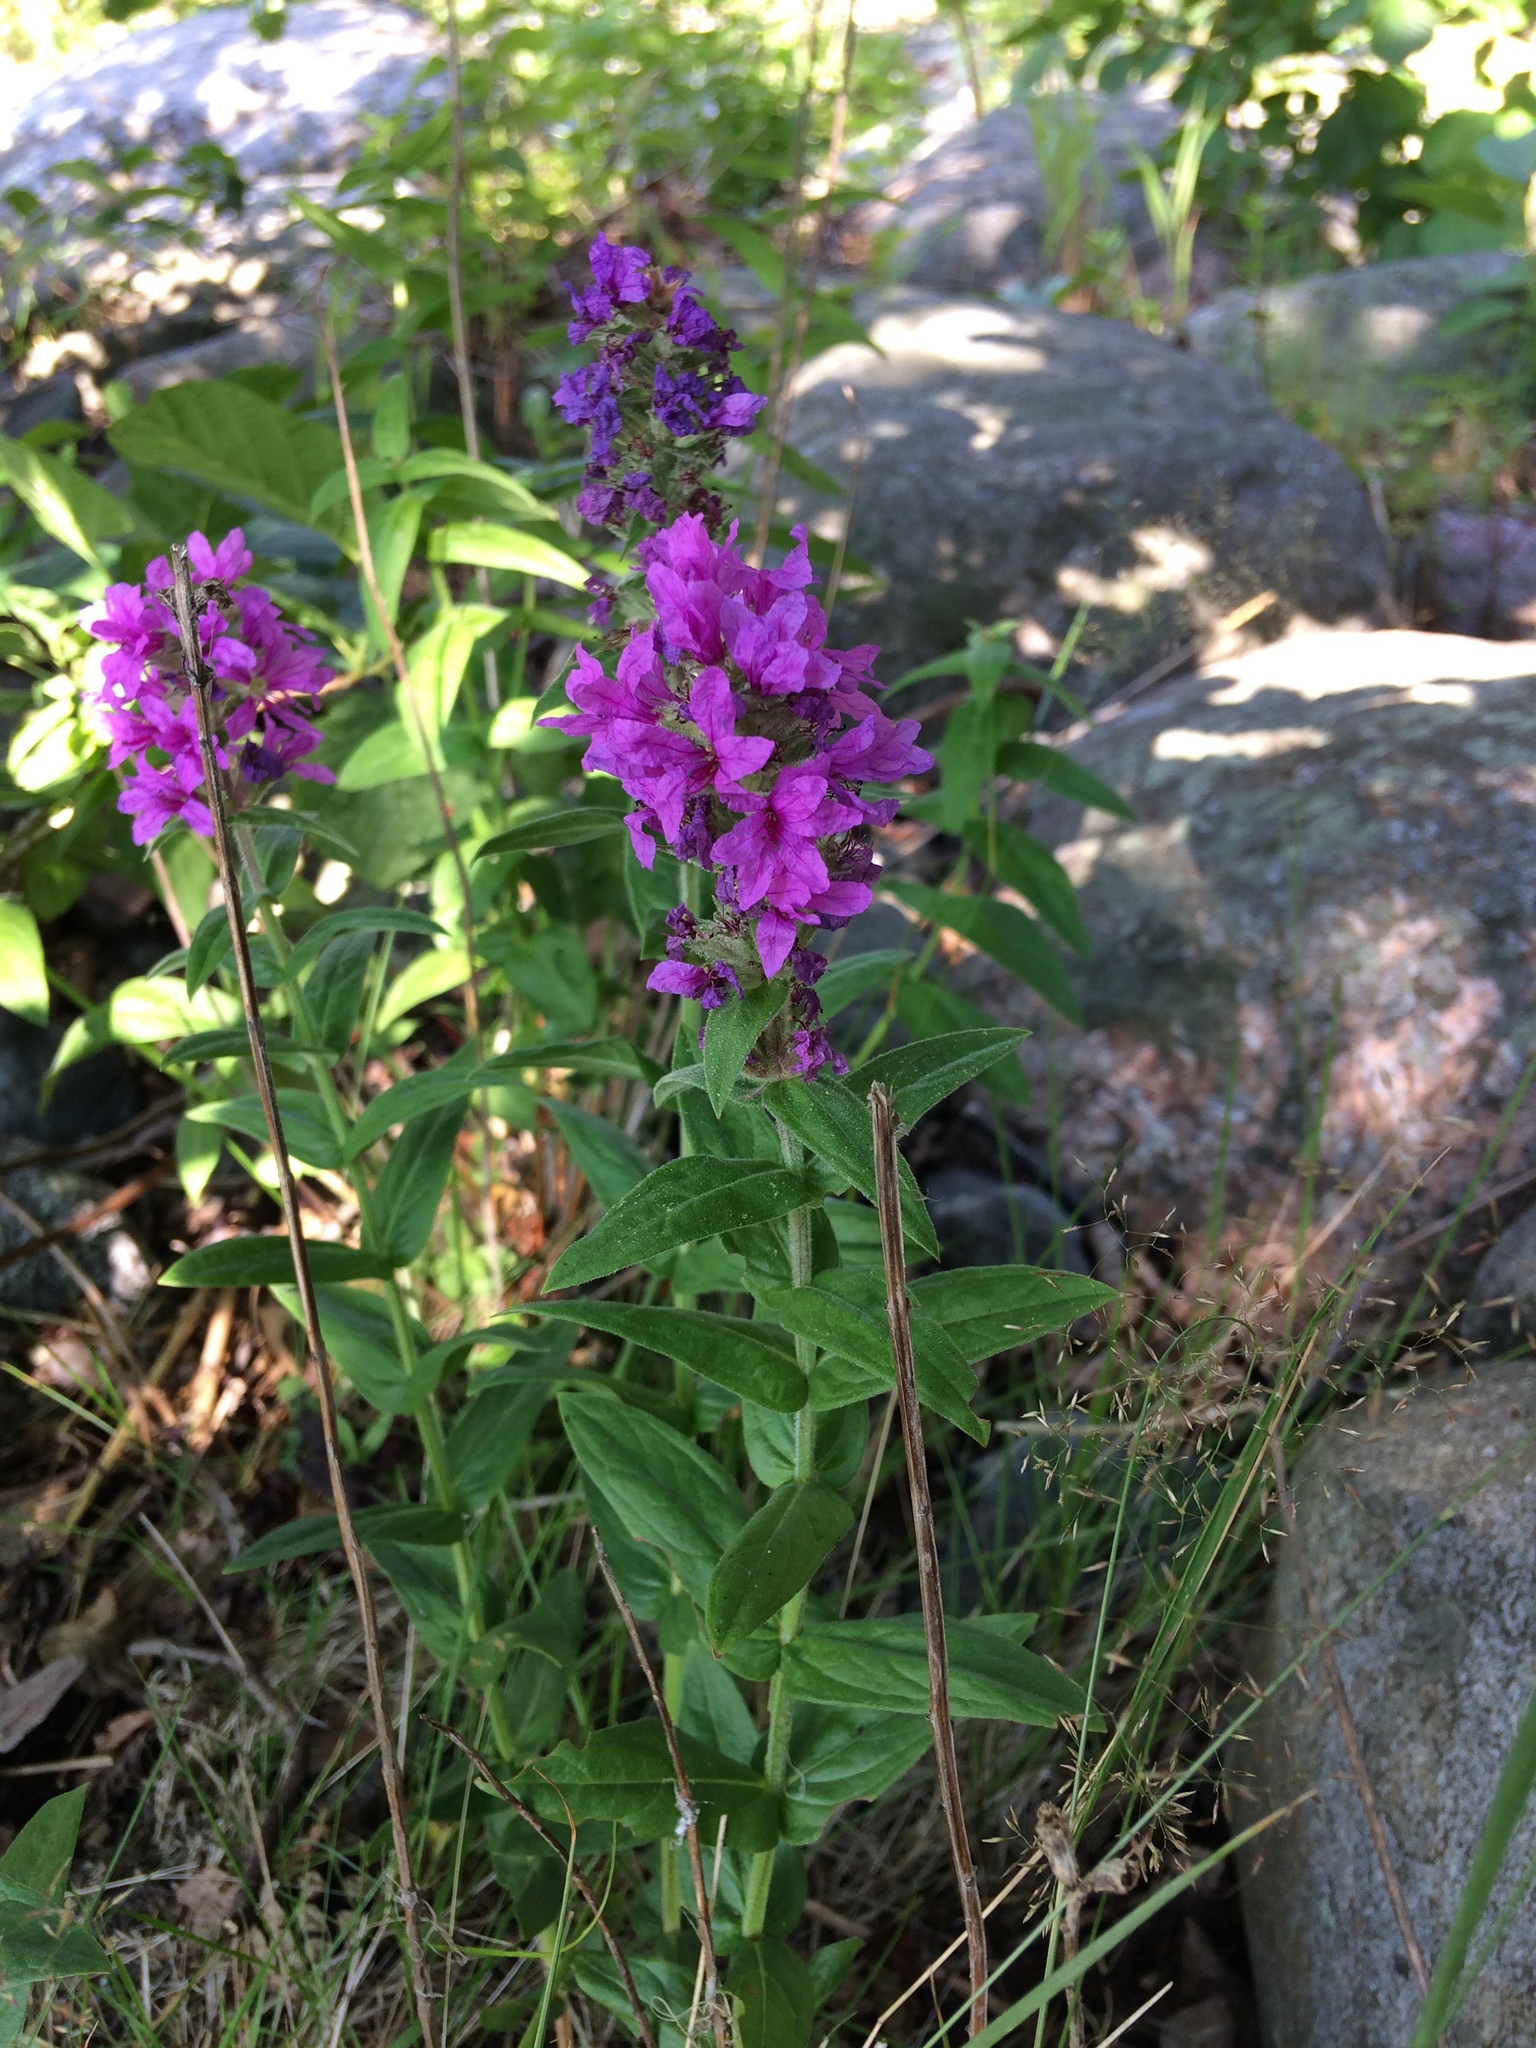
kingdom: Plantae
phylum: Tracheophyta
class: Magnoliopsida
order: Myrtales
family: Lythraceae
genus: Lythrum
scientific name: Lythrum salicaria
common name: Purple loosestrife
